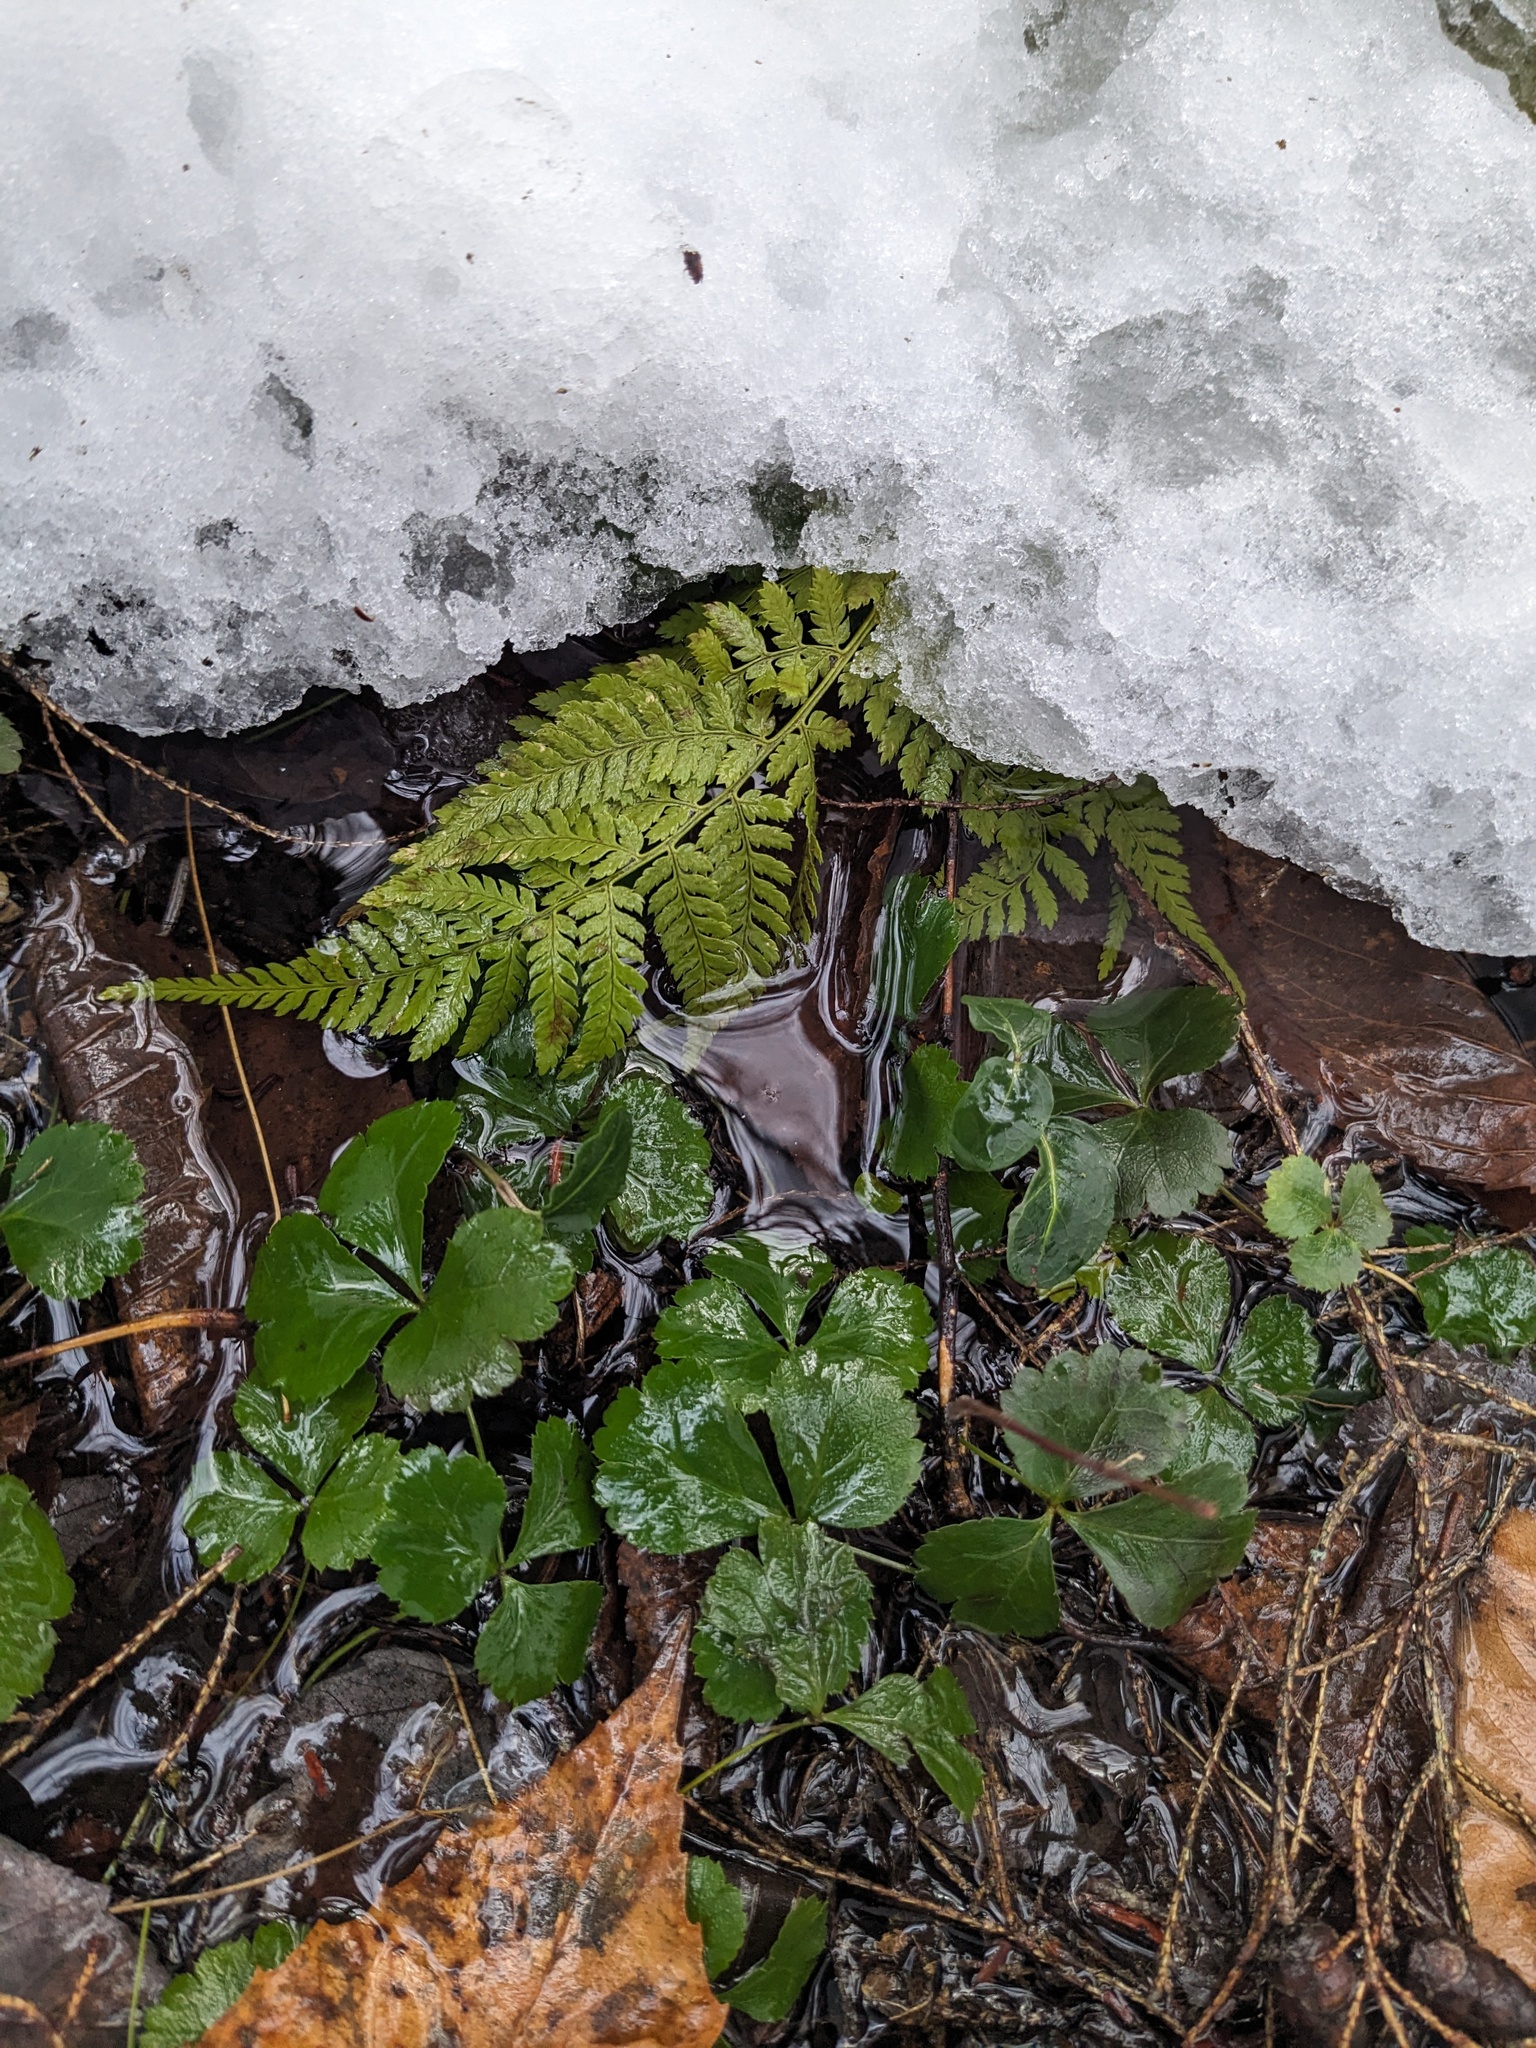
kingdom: Plantae
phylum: Tracheophyta
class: Magnoliopsida
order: Ranunculales
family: Ranunculaceae
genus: Coptis
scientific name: Coptis trifolia
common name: Canker-root
